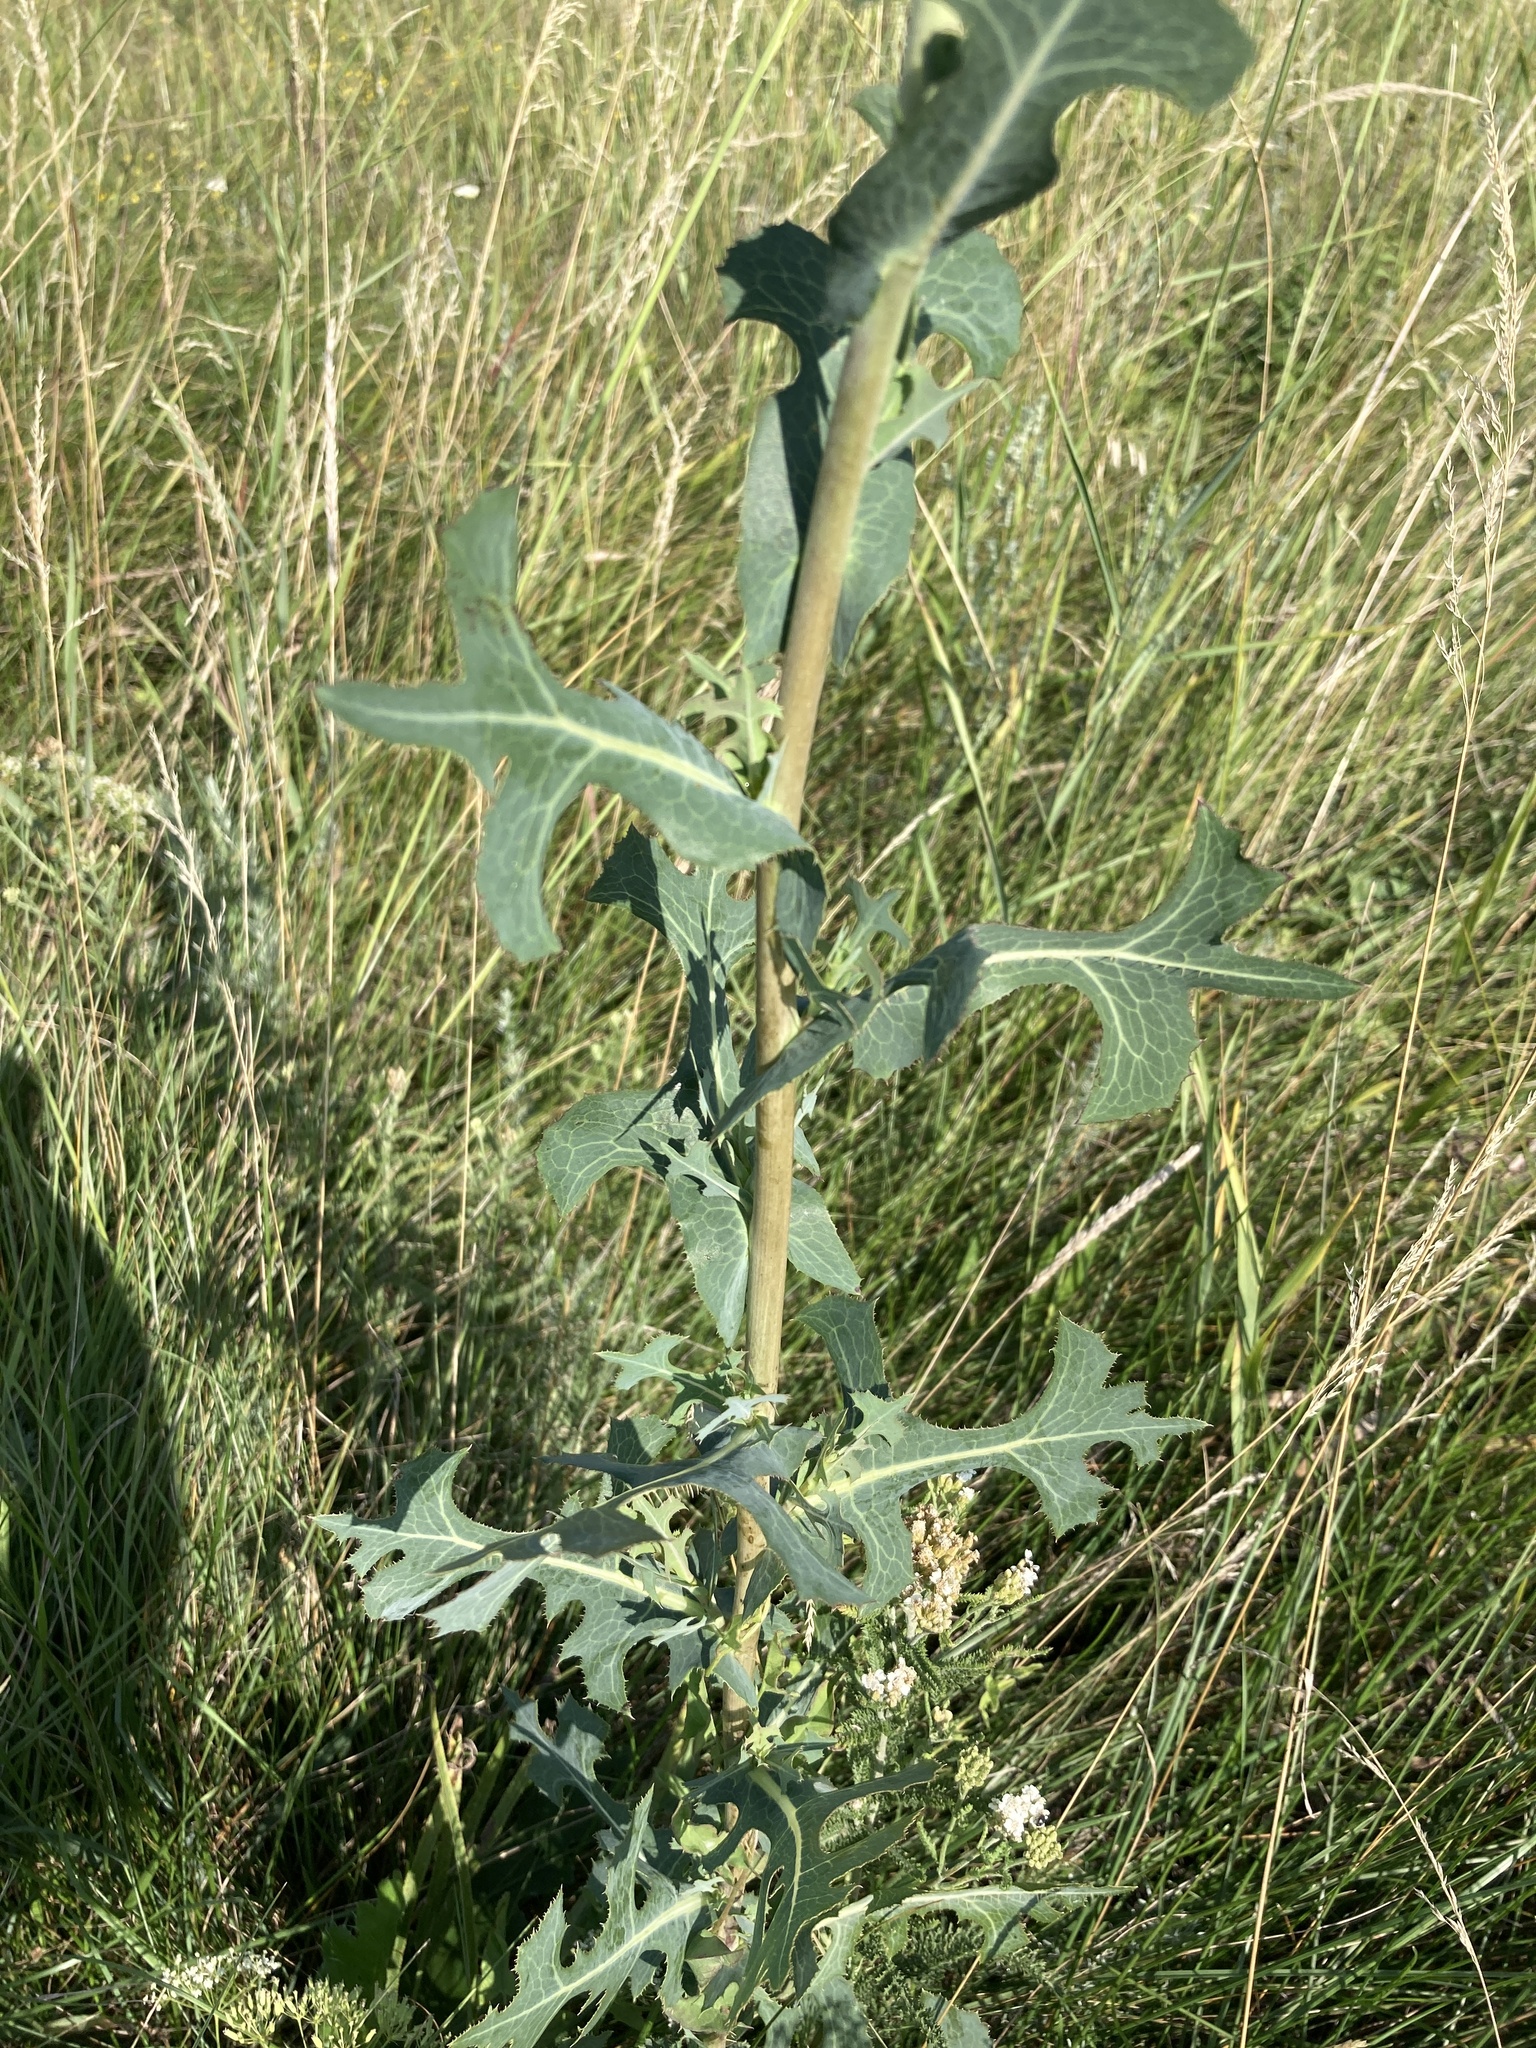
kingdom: Plantae
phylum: Tracheophyta
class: Magnoliopsida
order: Asterales
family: Asteraceae
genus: Lactuca
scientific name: Lactuca serriola
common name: Prickly lettuce
